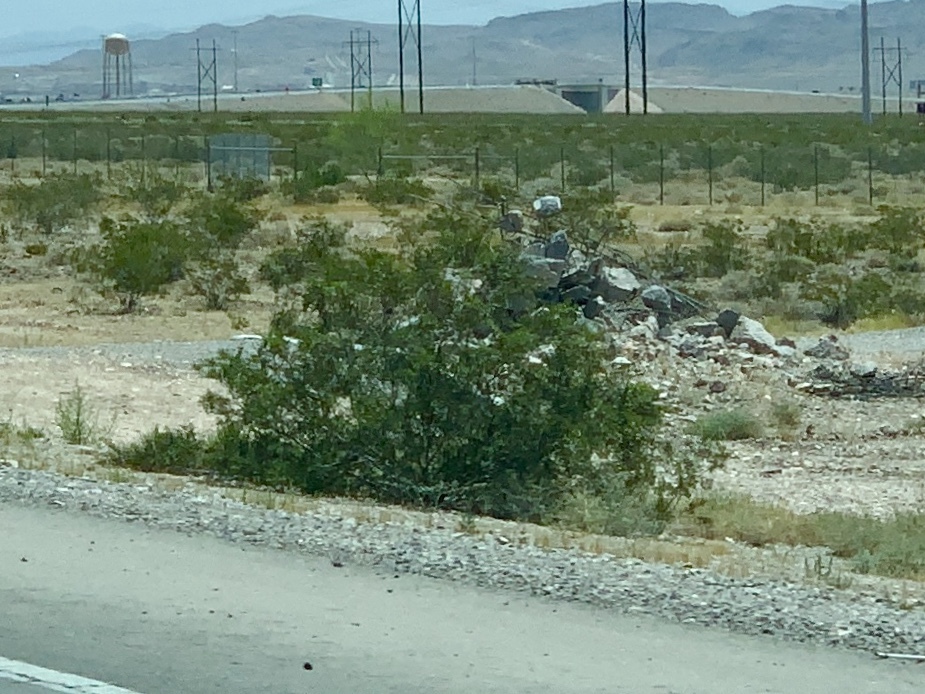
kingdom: Plantae
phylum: Tracheophyta
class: Magnoliopsida
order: Zygophyllales
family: Zygophyllaceae
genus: Larrea
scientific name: Larrea tridentata
